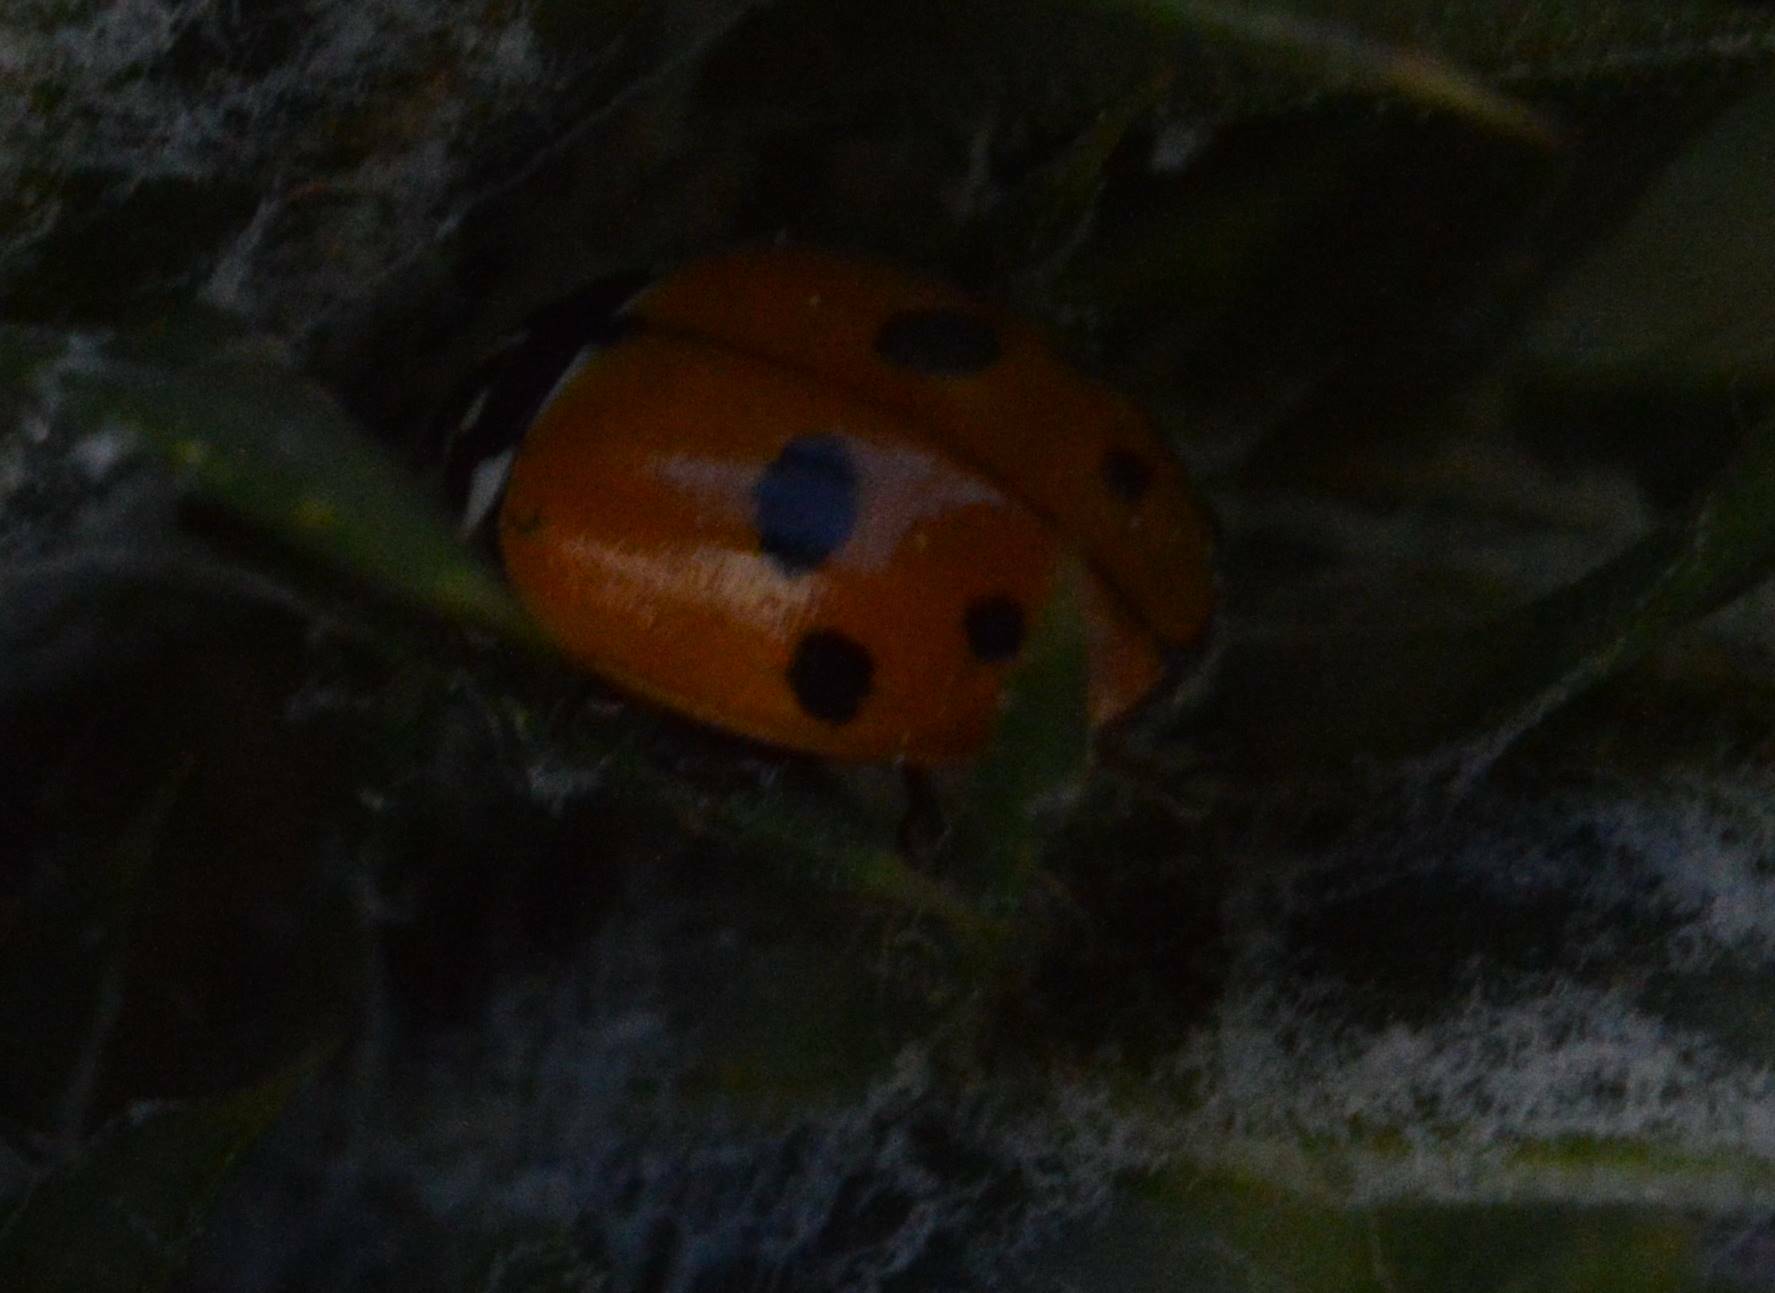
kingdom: Animalia
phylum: Arthropoda
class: Insecta
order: Coleoptera
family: Coccinellidae
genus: Hippodamia
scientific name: Hippodamia variegata
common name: Ladybird beetle
